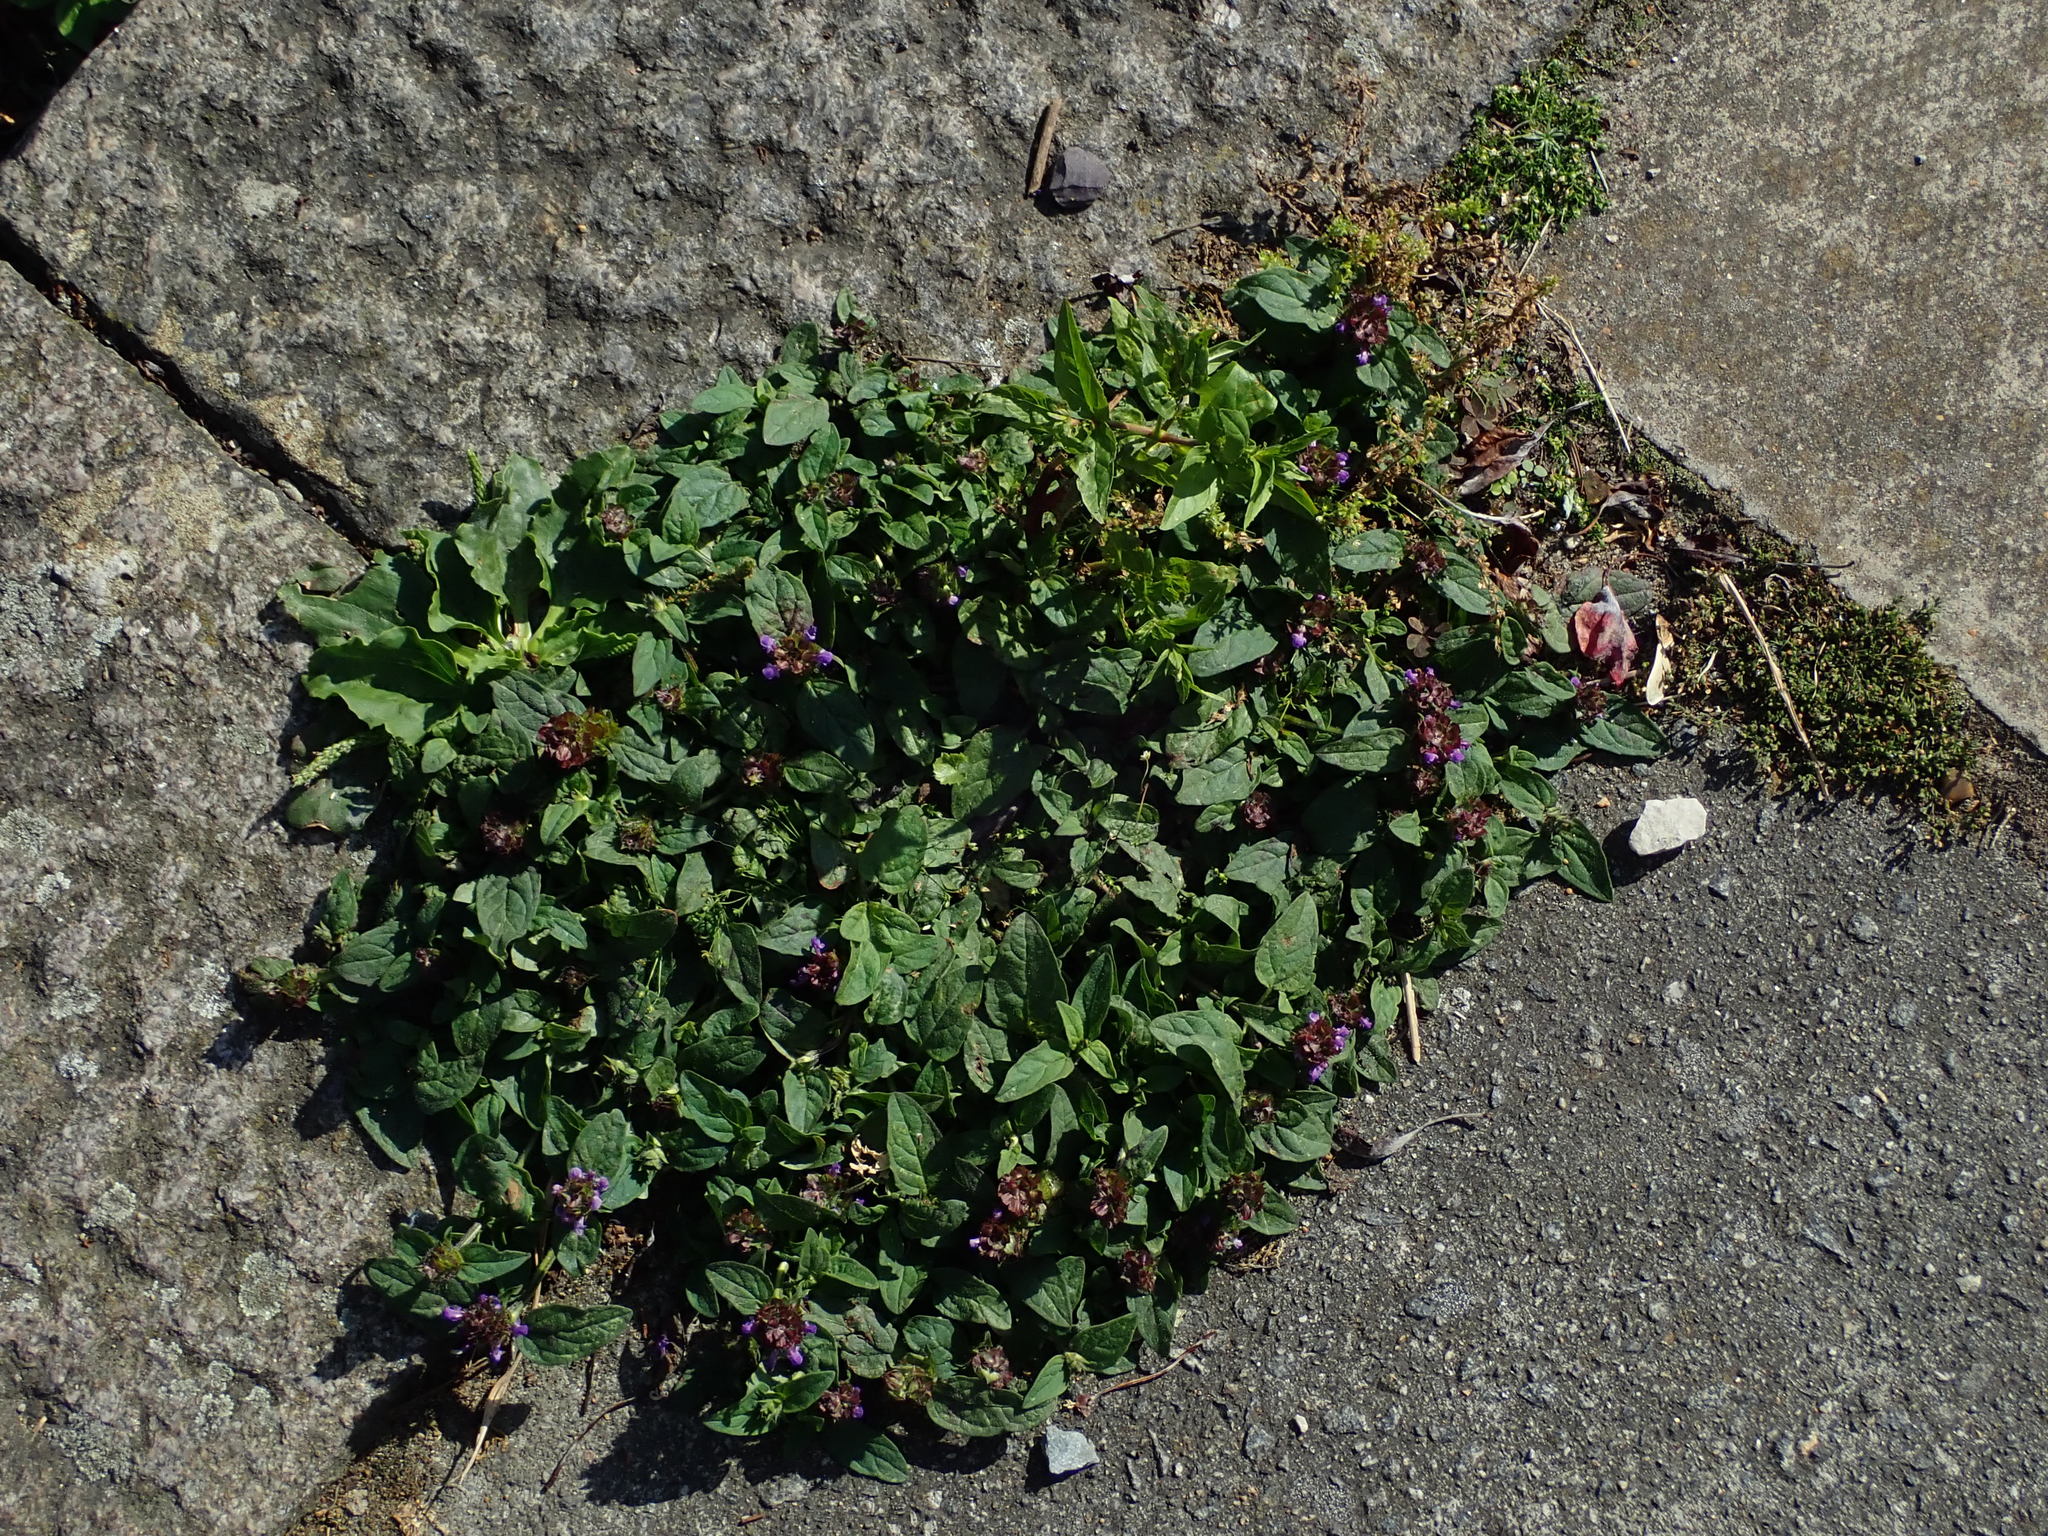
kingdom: Plantae
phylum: Tracheophyta
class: Magnoliopsida
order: Lamiales
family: Lamiaceae
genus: Prunella
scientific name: Prunella vulgaris
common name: Heal-all
